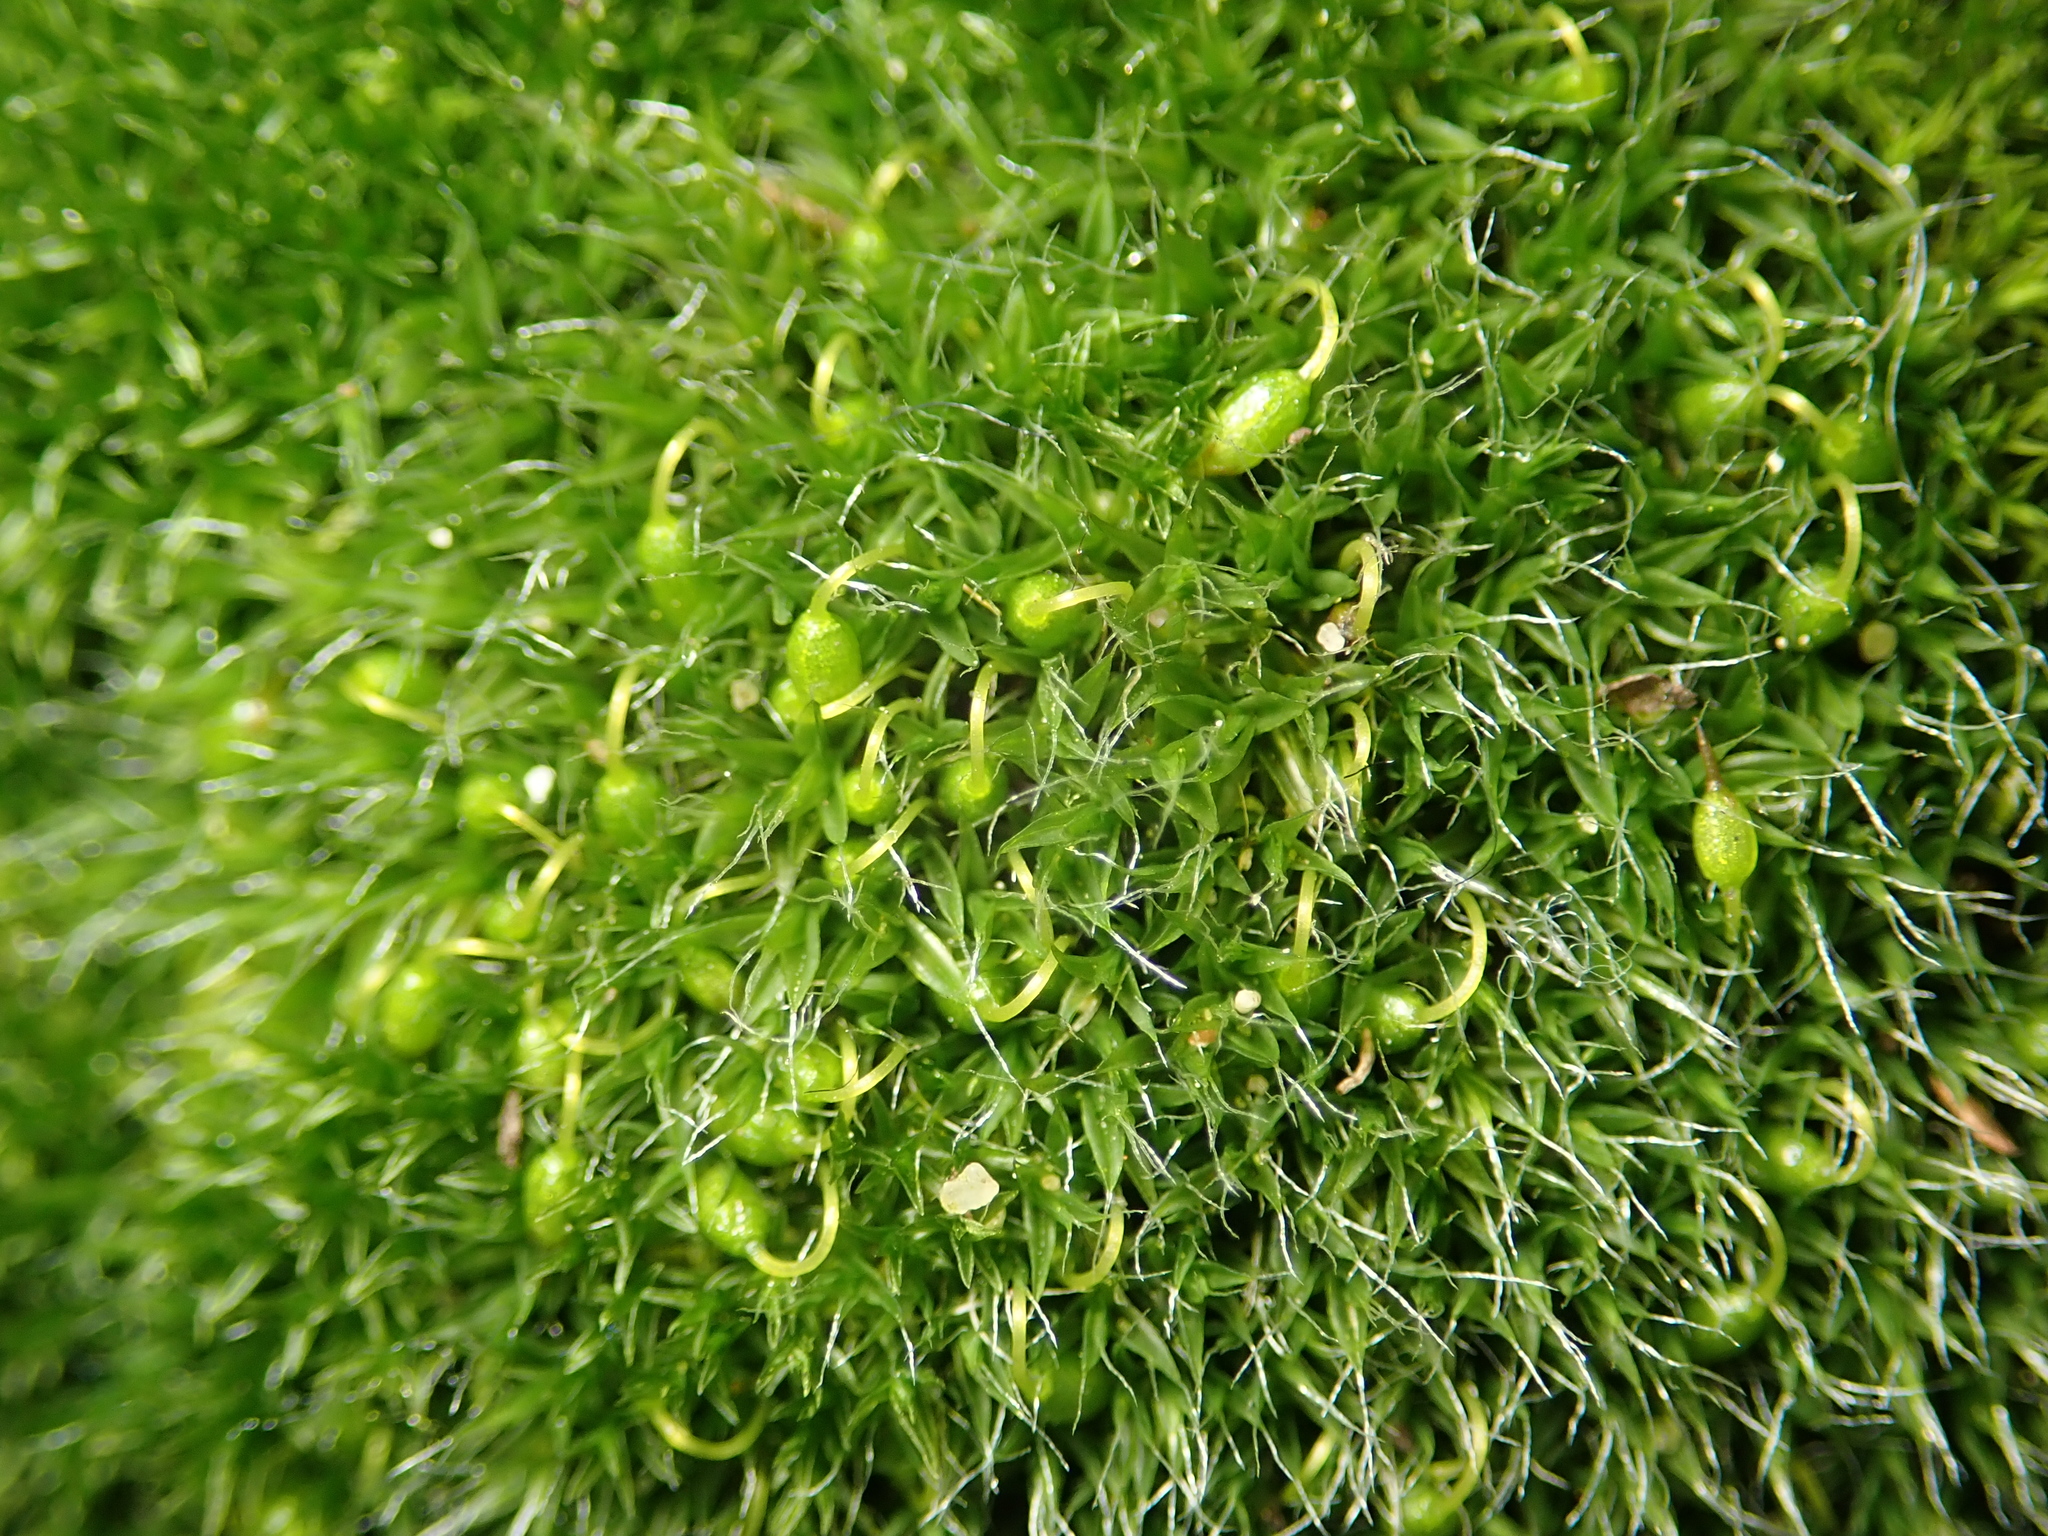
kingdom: Plantae
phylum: Bryophyta
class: Bryopsida
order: Grimmiales
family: Grimmiaceae
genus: Grimmia
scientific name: Grimmia pulvinata
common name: Grey-cushioned grimmia
